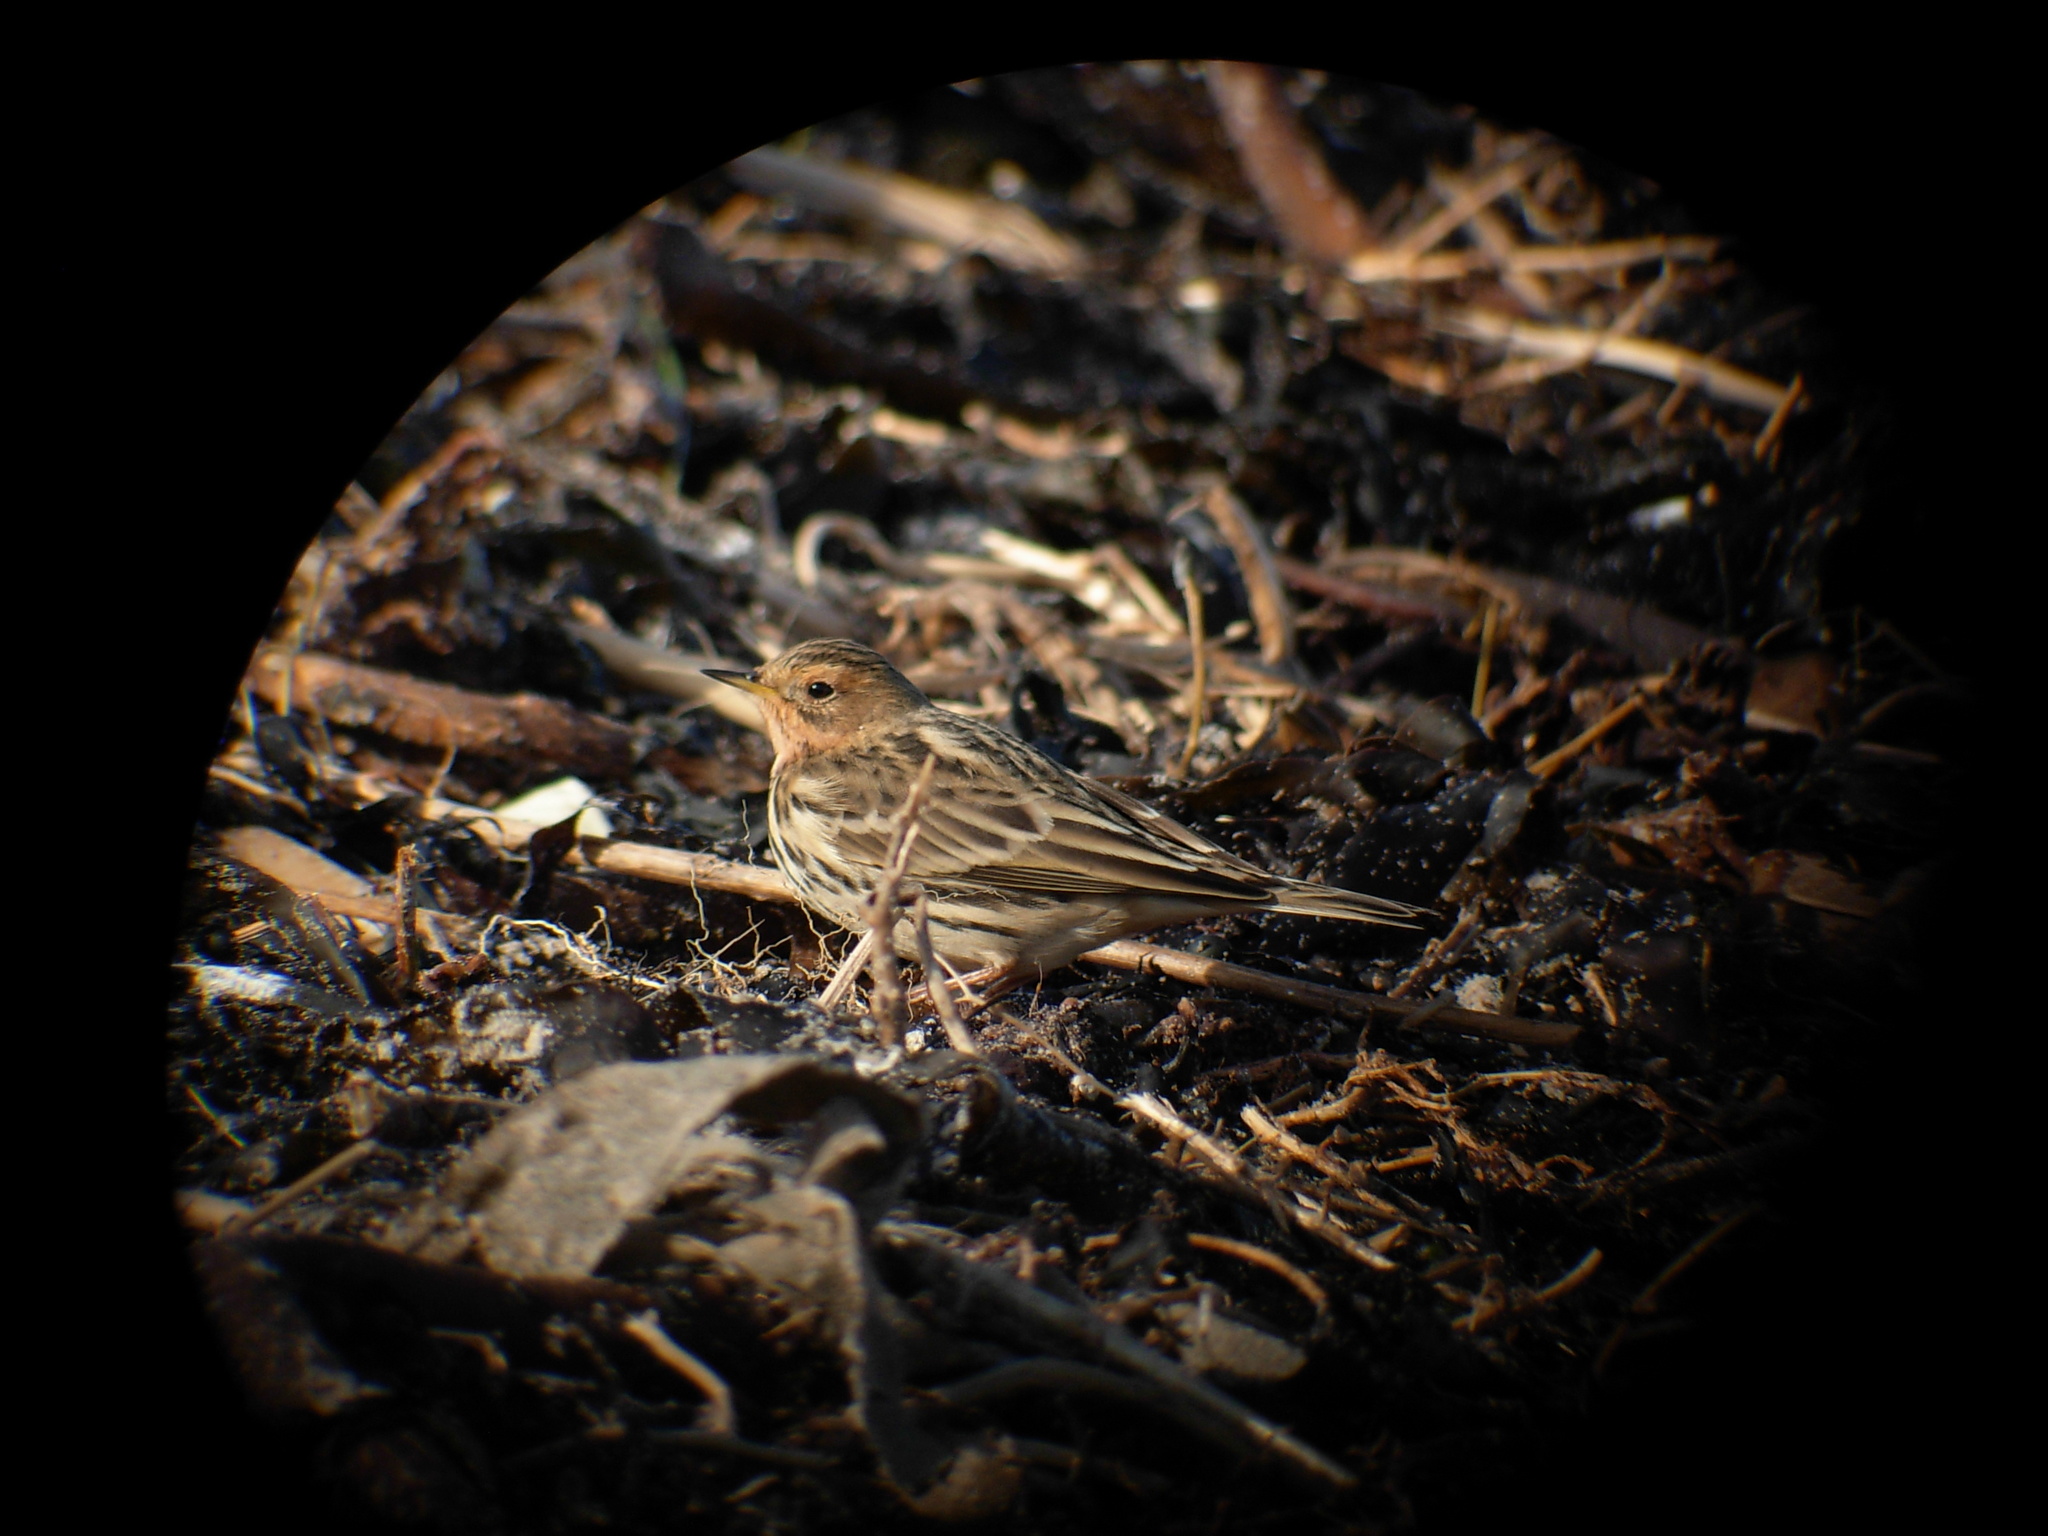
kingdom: Animalia
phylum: Chordata
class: Aves
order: Passeriformes
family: Motacillidae
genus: Anthus
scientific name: Anthus cervinus
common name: Red-throated pipit
